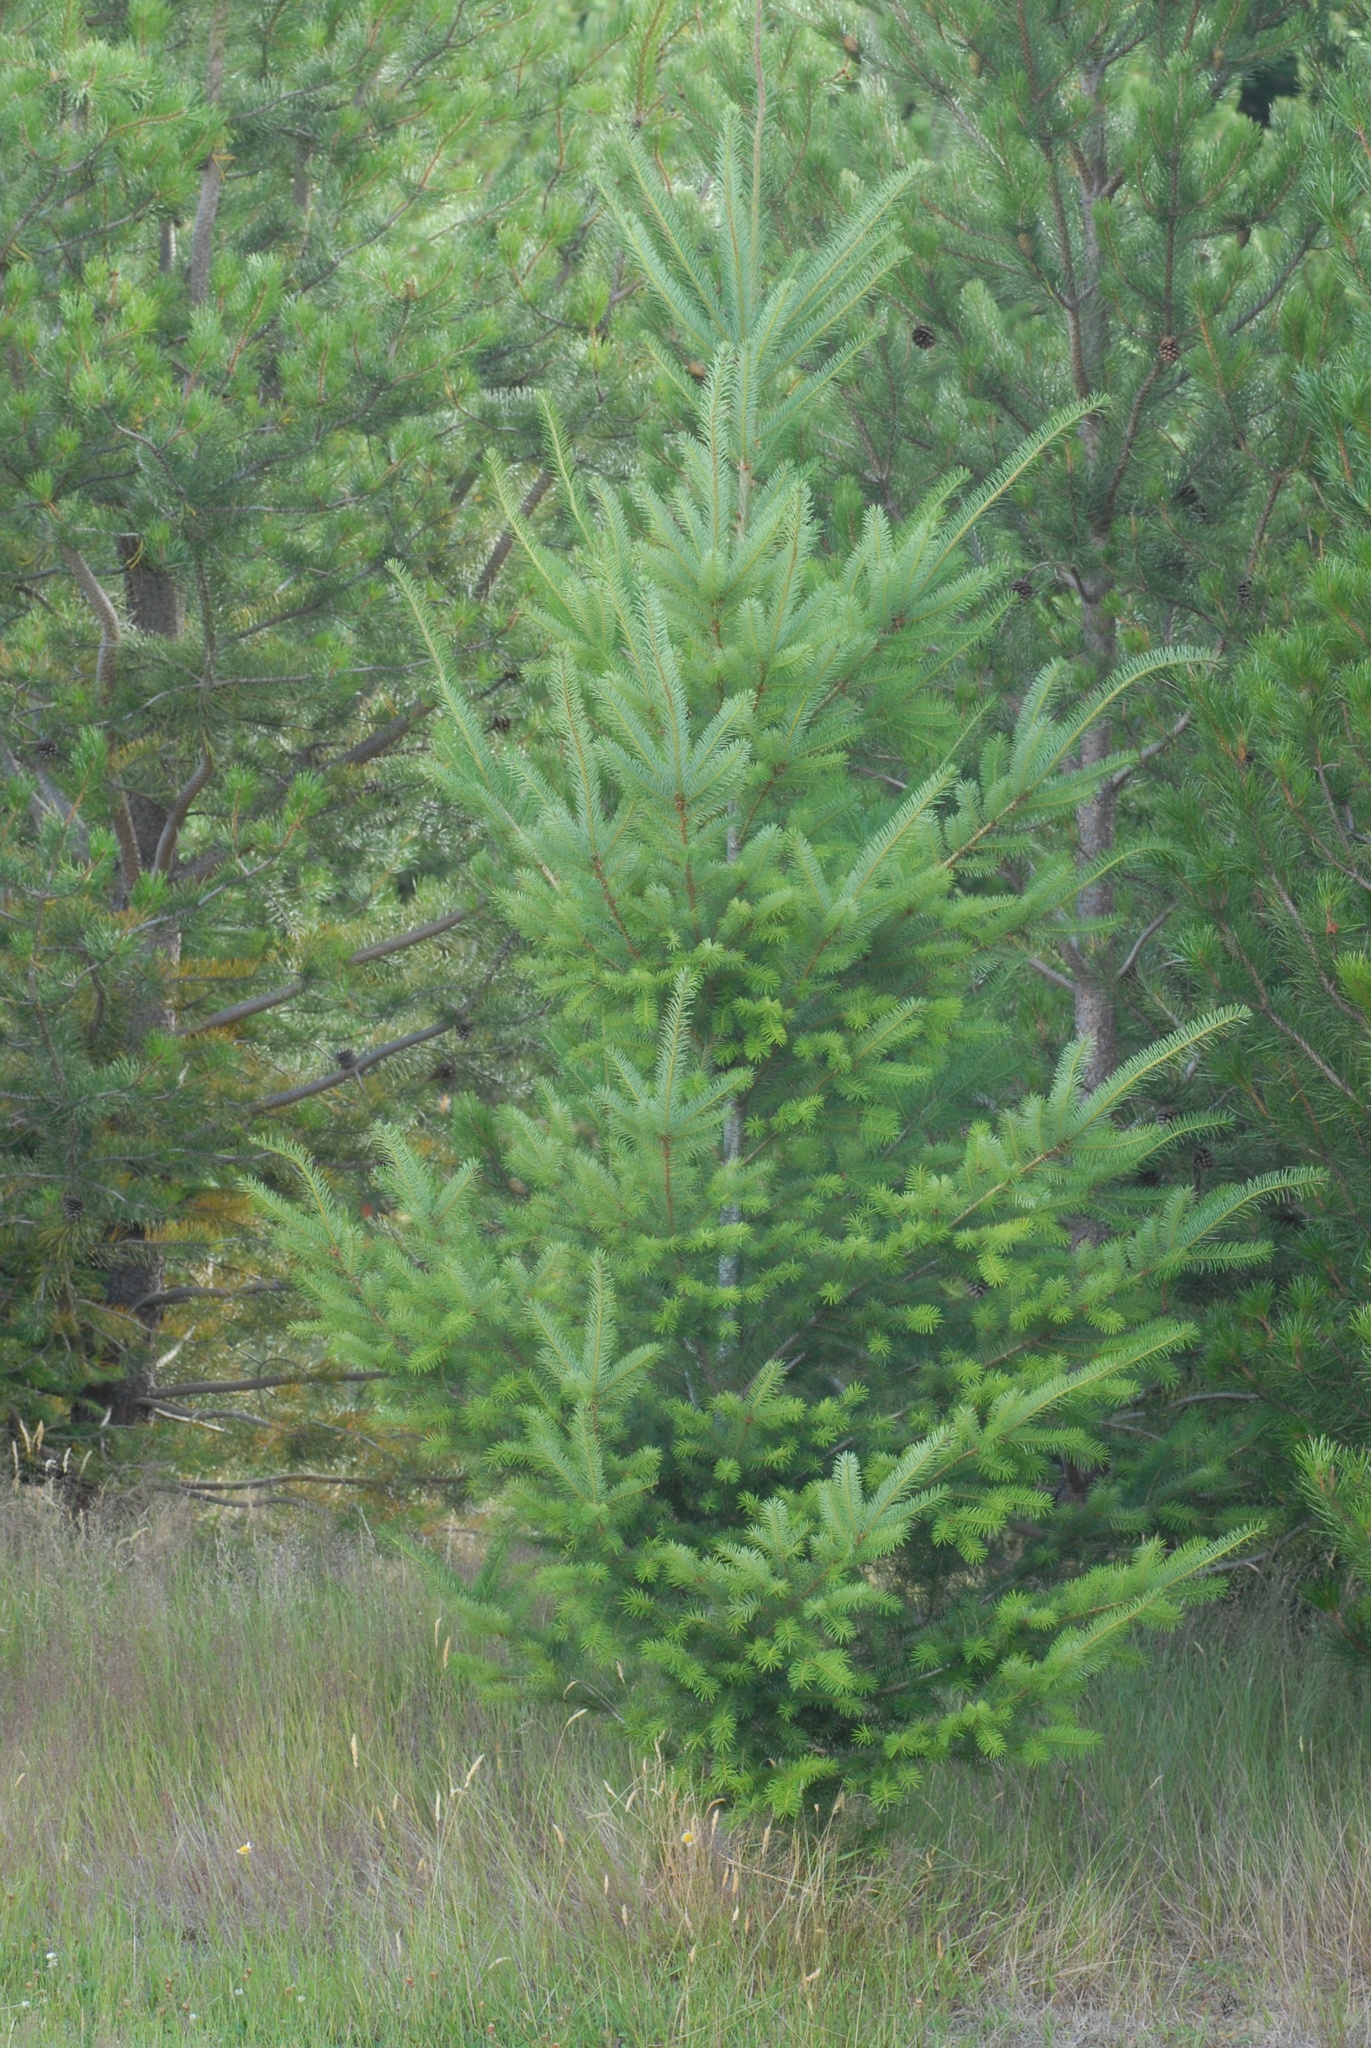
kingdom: Plantae
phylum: Tracheophyta
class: Pinopsida
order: Pinales
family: Pinaceae
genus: Pseudotsuga
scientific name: Pseudotsuga menziesii
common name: Douglas fir
